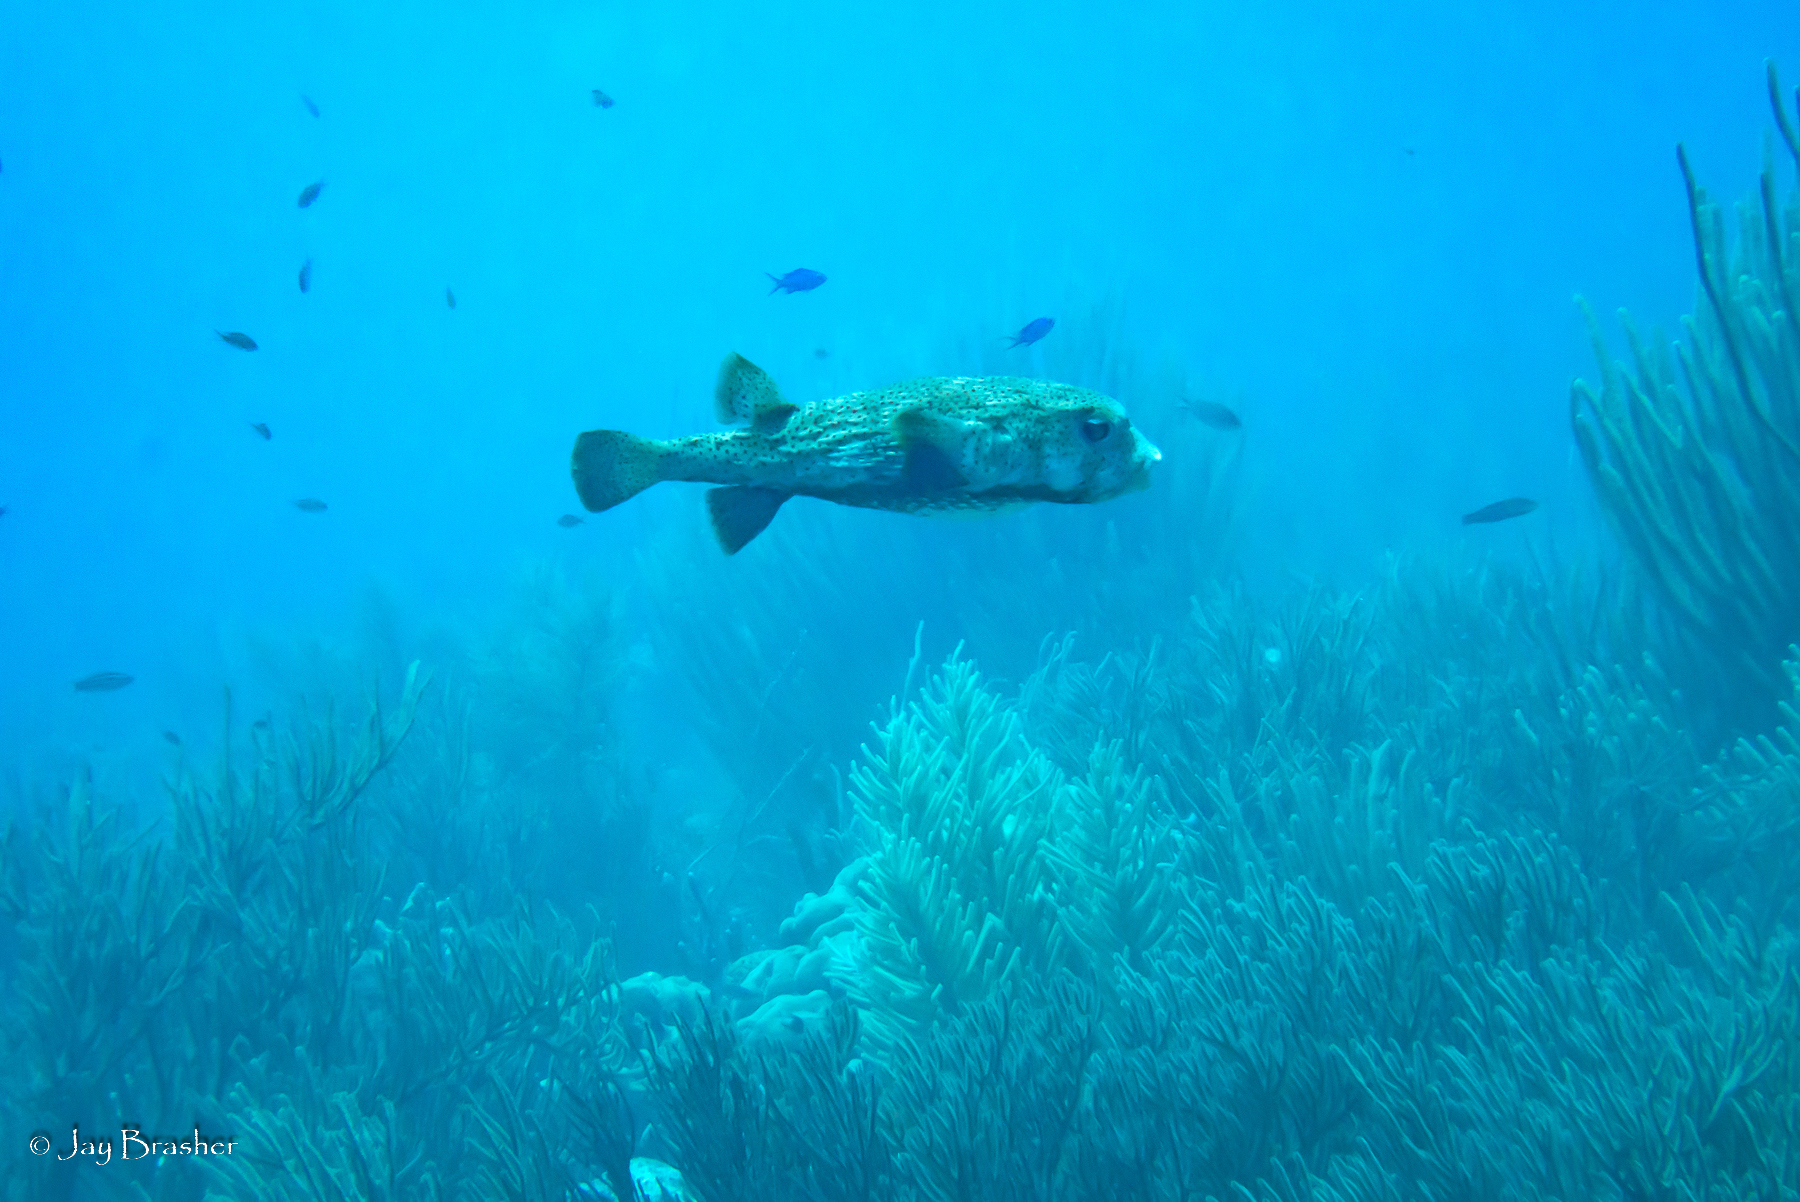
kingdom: Animalia
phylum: Chordata
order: Tetraodontiformes
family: Diodontidae
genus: Diodon
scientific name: Diodon hystrix
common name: Giant porcupinefish
